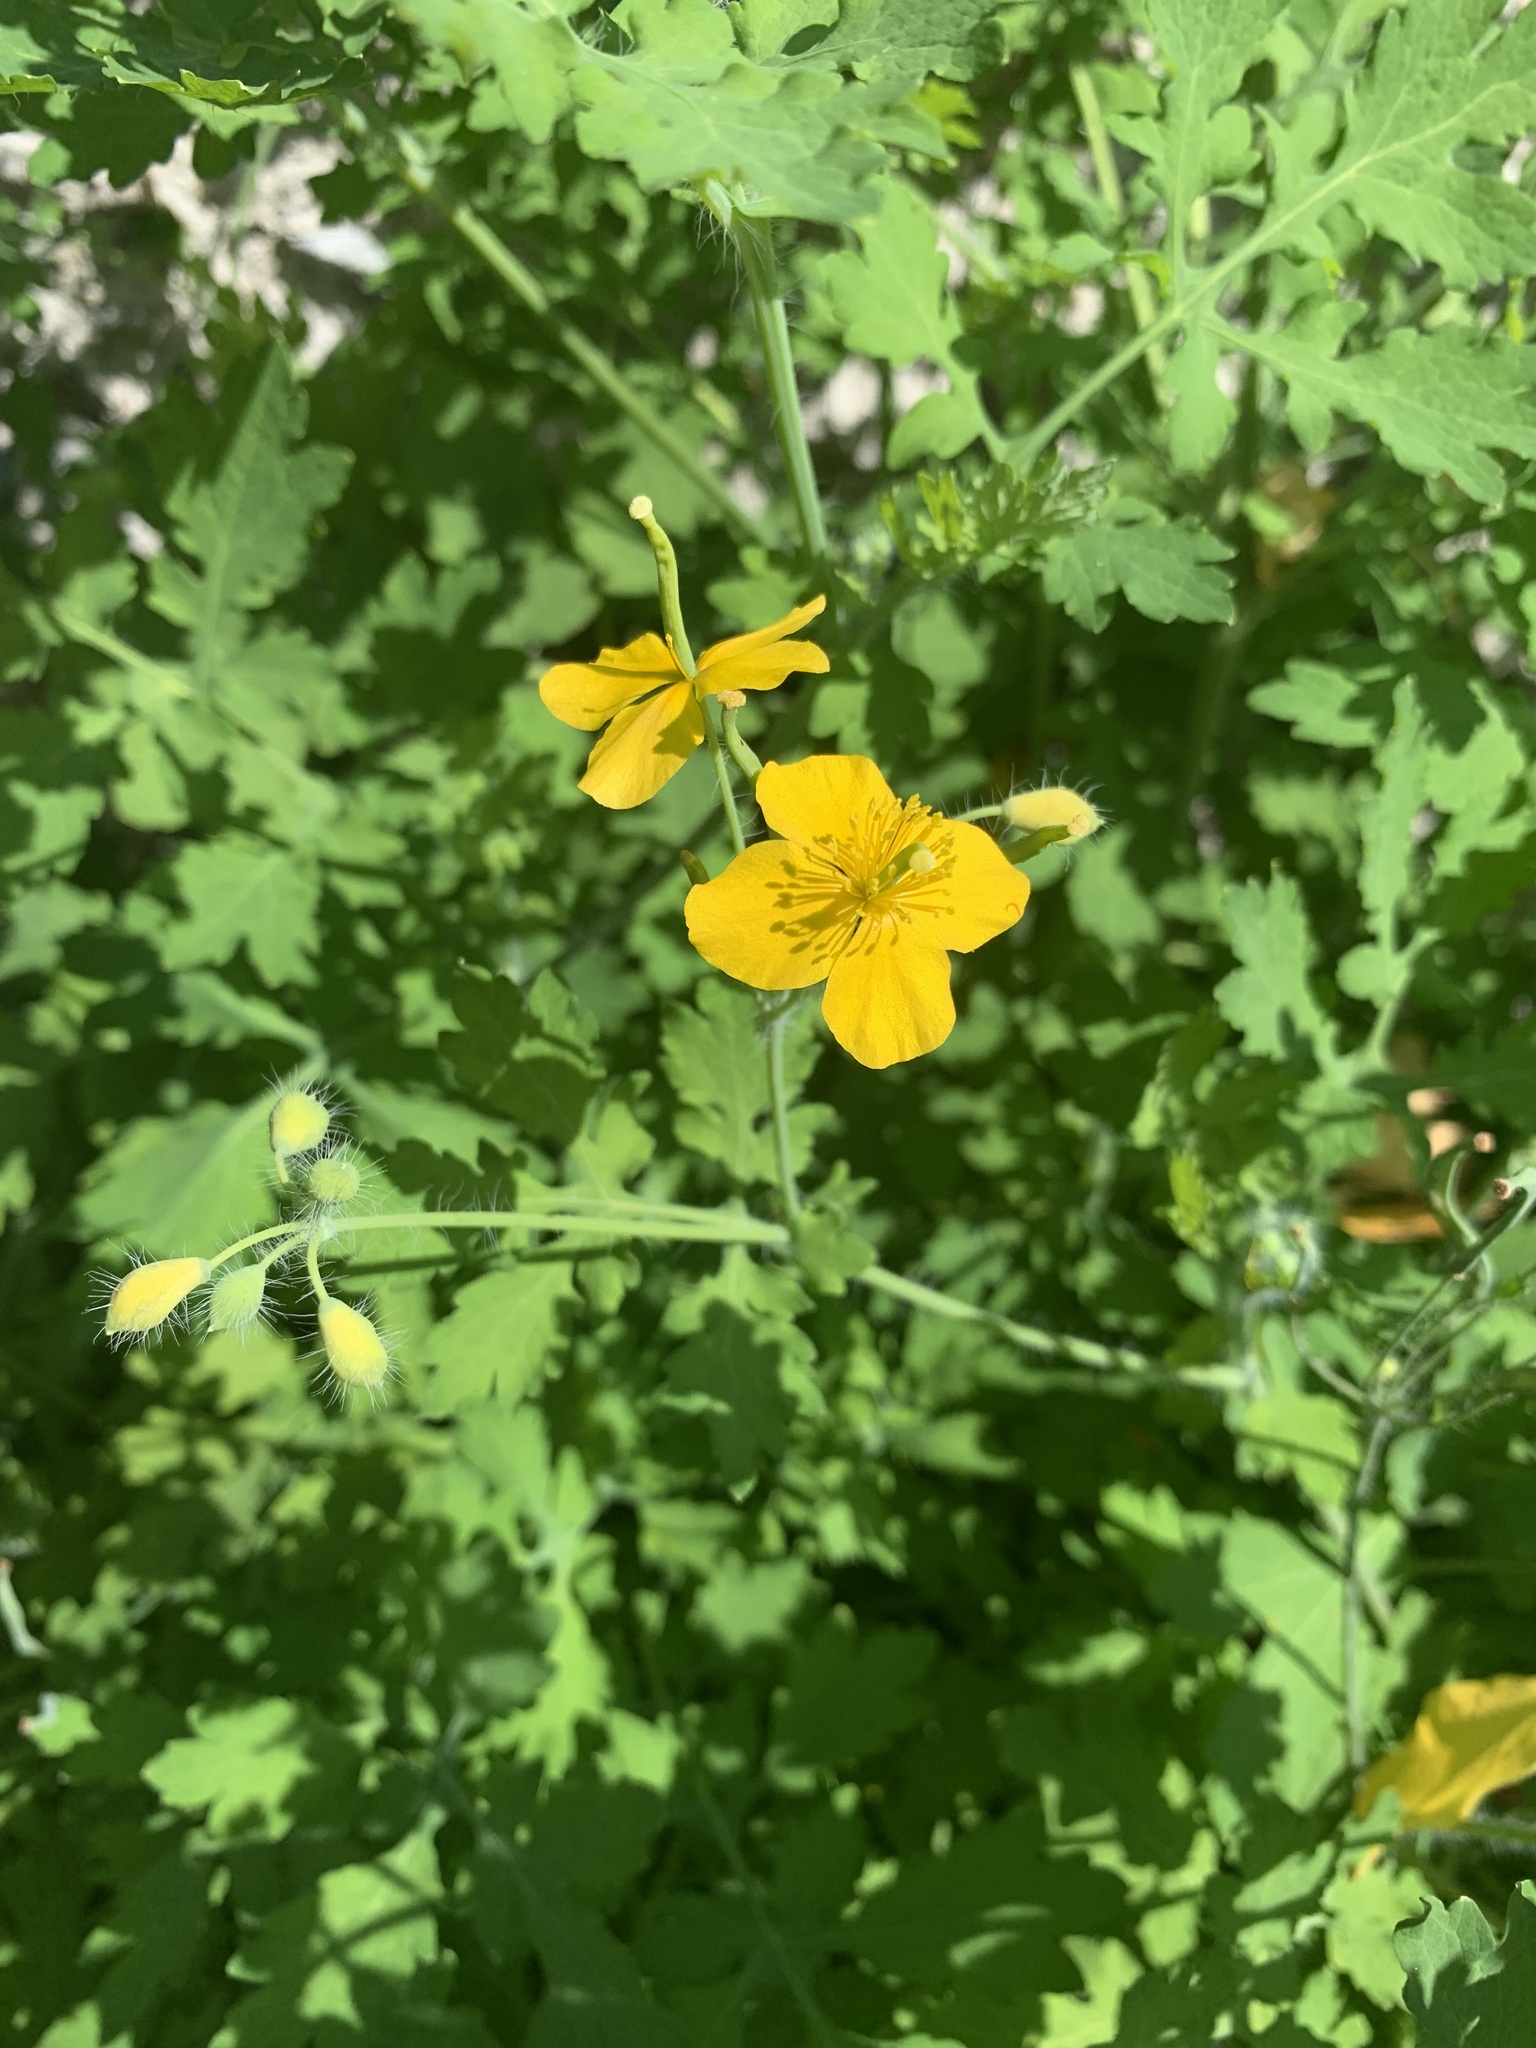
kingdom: Plantae
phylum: Tracheophyta
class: Magnoliopsida
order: Ranunculales
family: Papaveraceae
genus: Chelidonium
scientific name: Chelidonium majus
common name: Greater celandine
